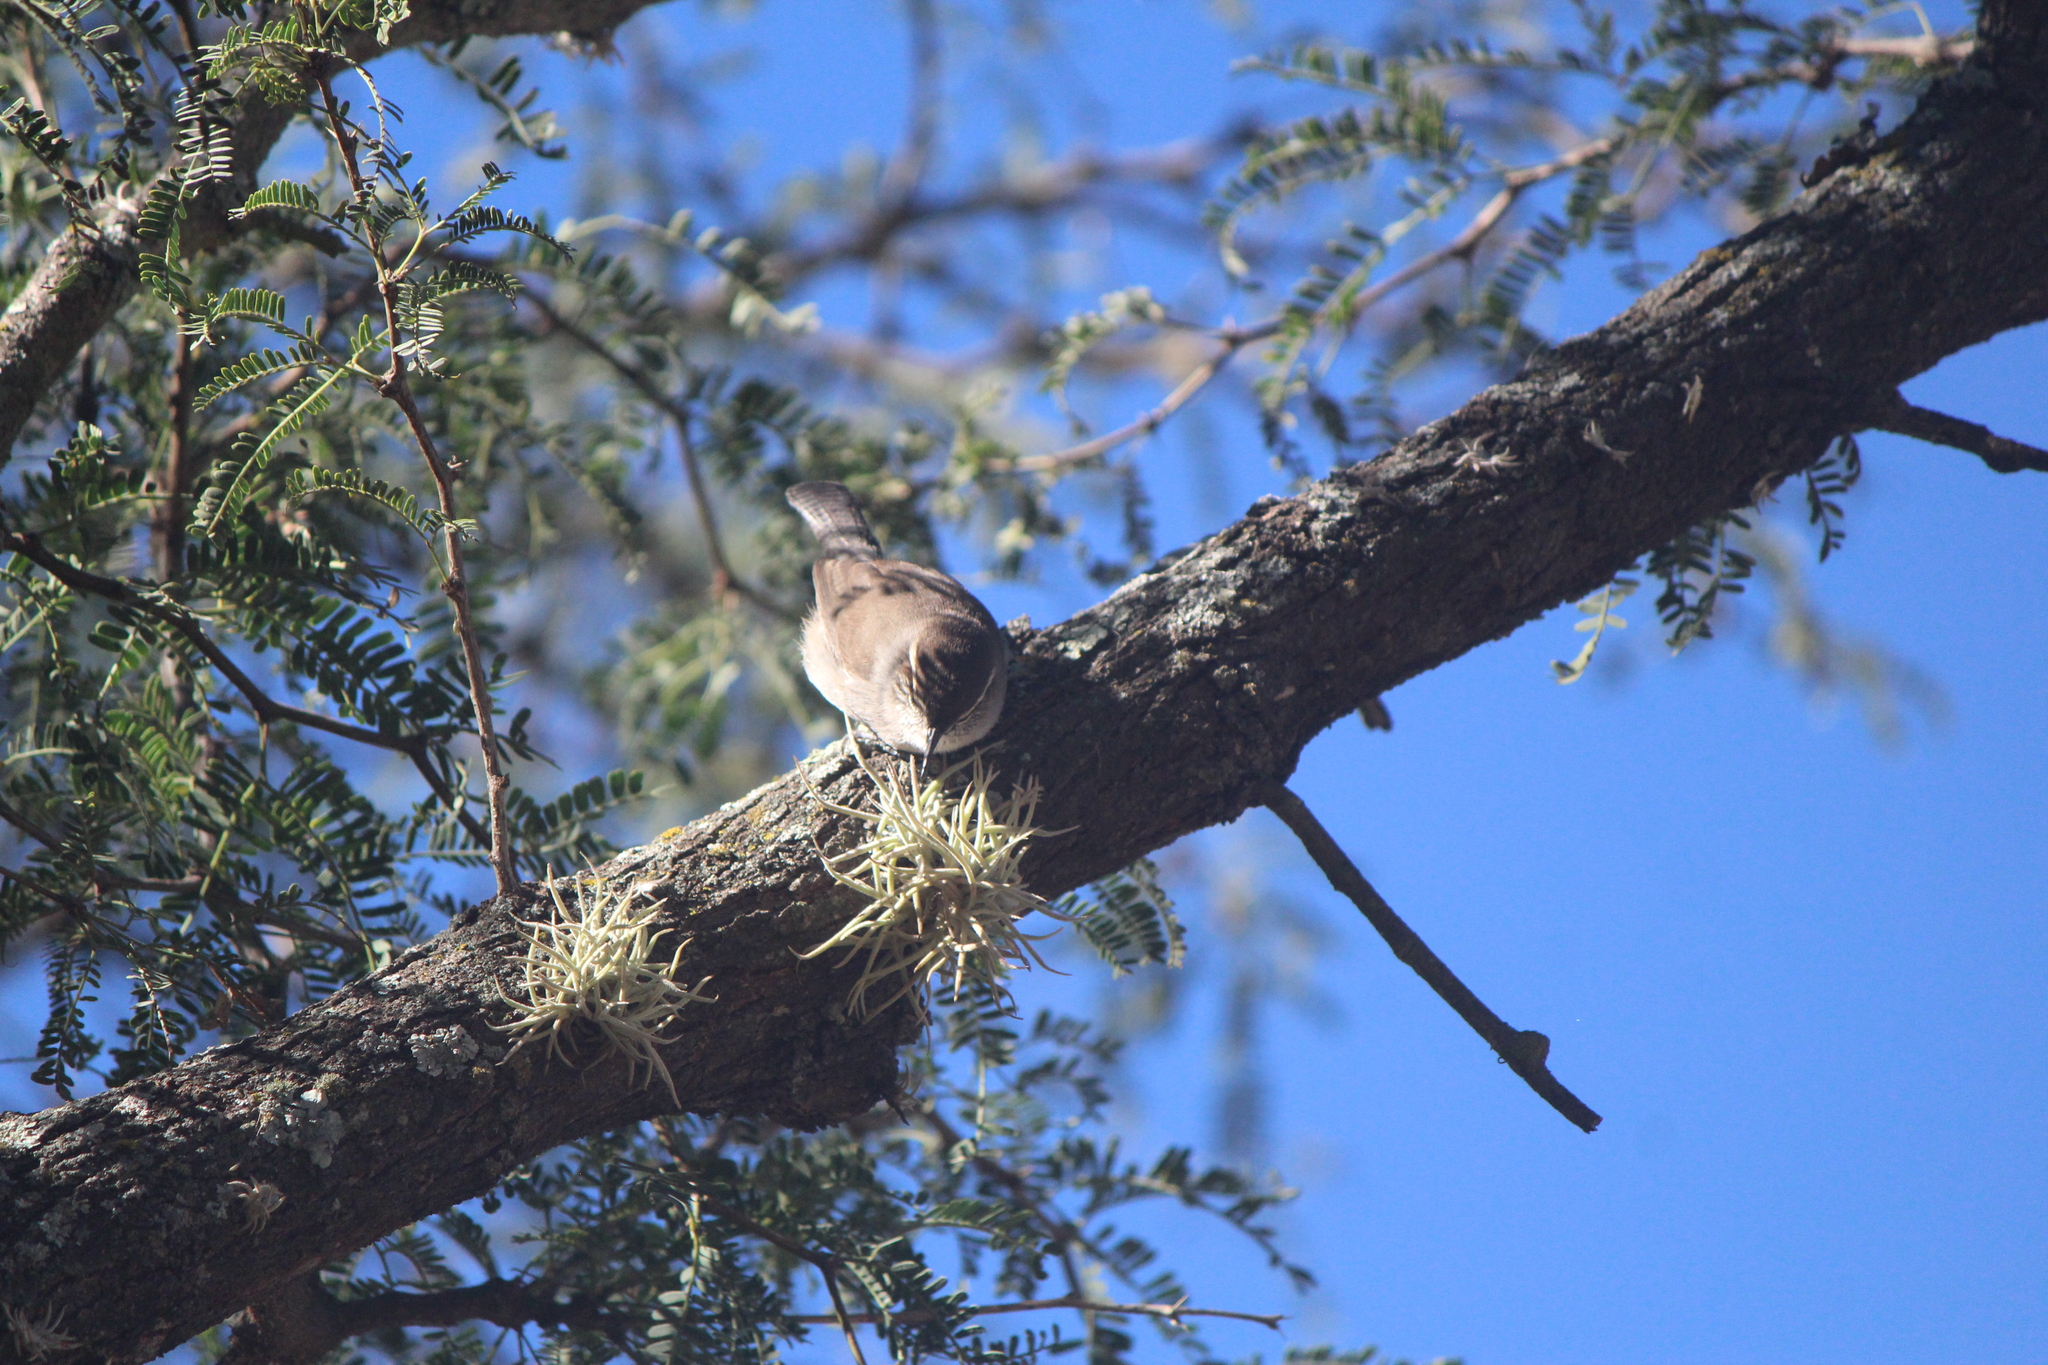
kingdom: Animalia
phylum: Chordata
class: Aves
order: Passeriformes
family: Troglodytidae
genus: Thryomanes
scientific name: Thryomanes bewickii
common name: Bewick's wren
